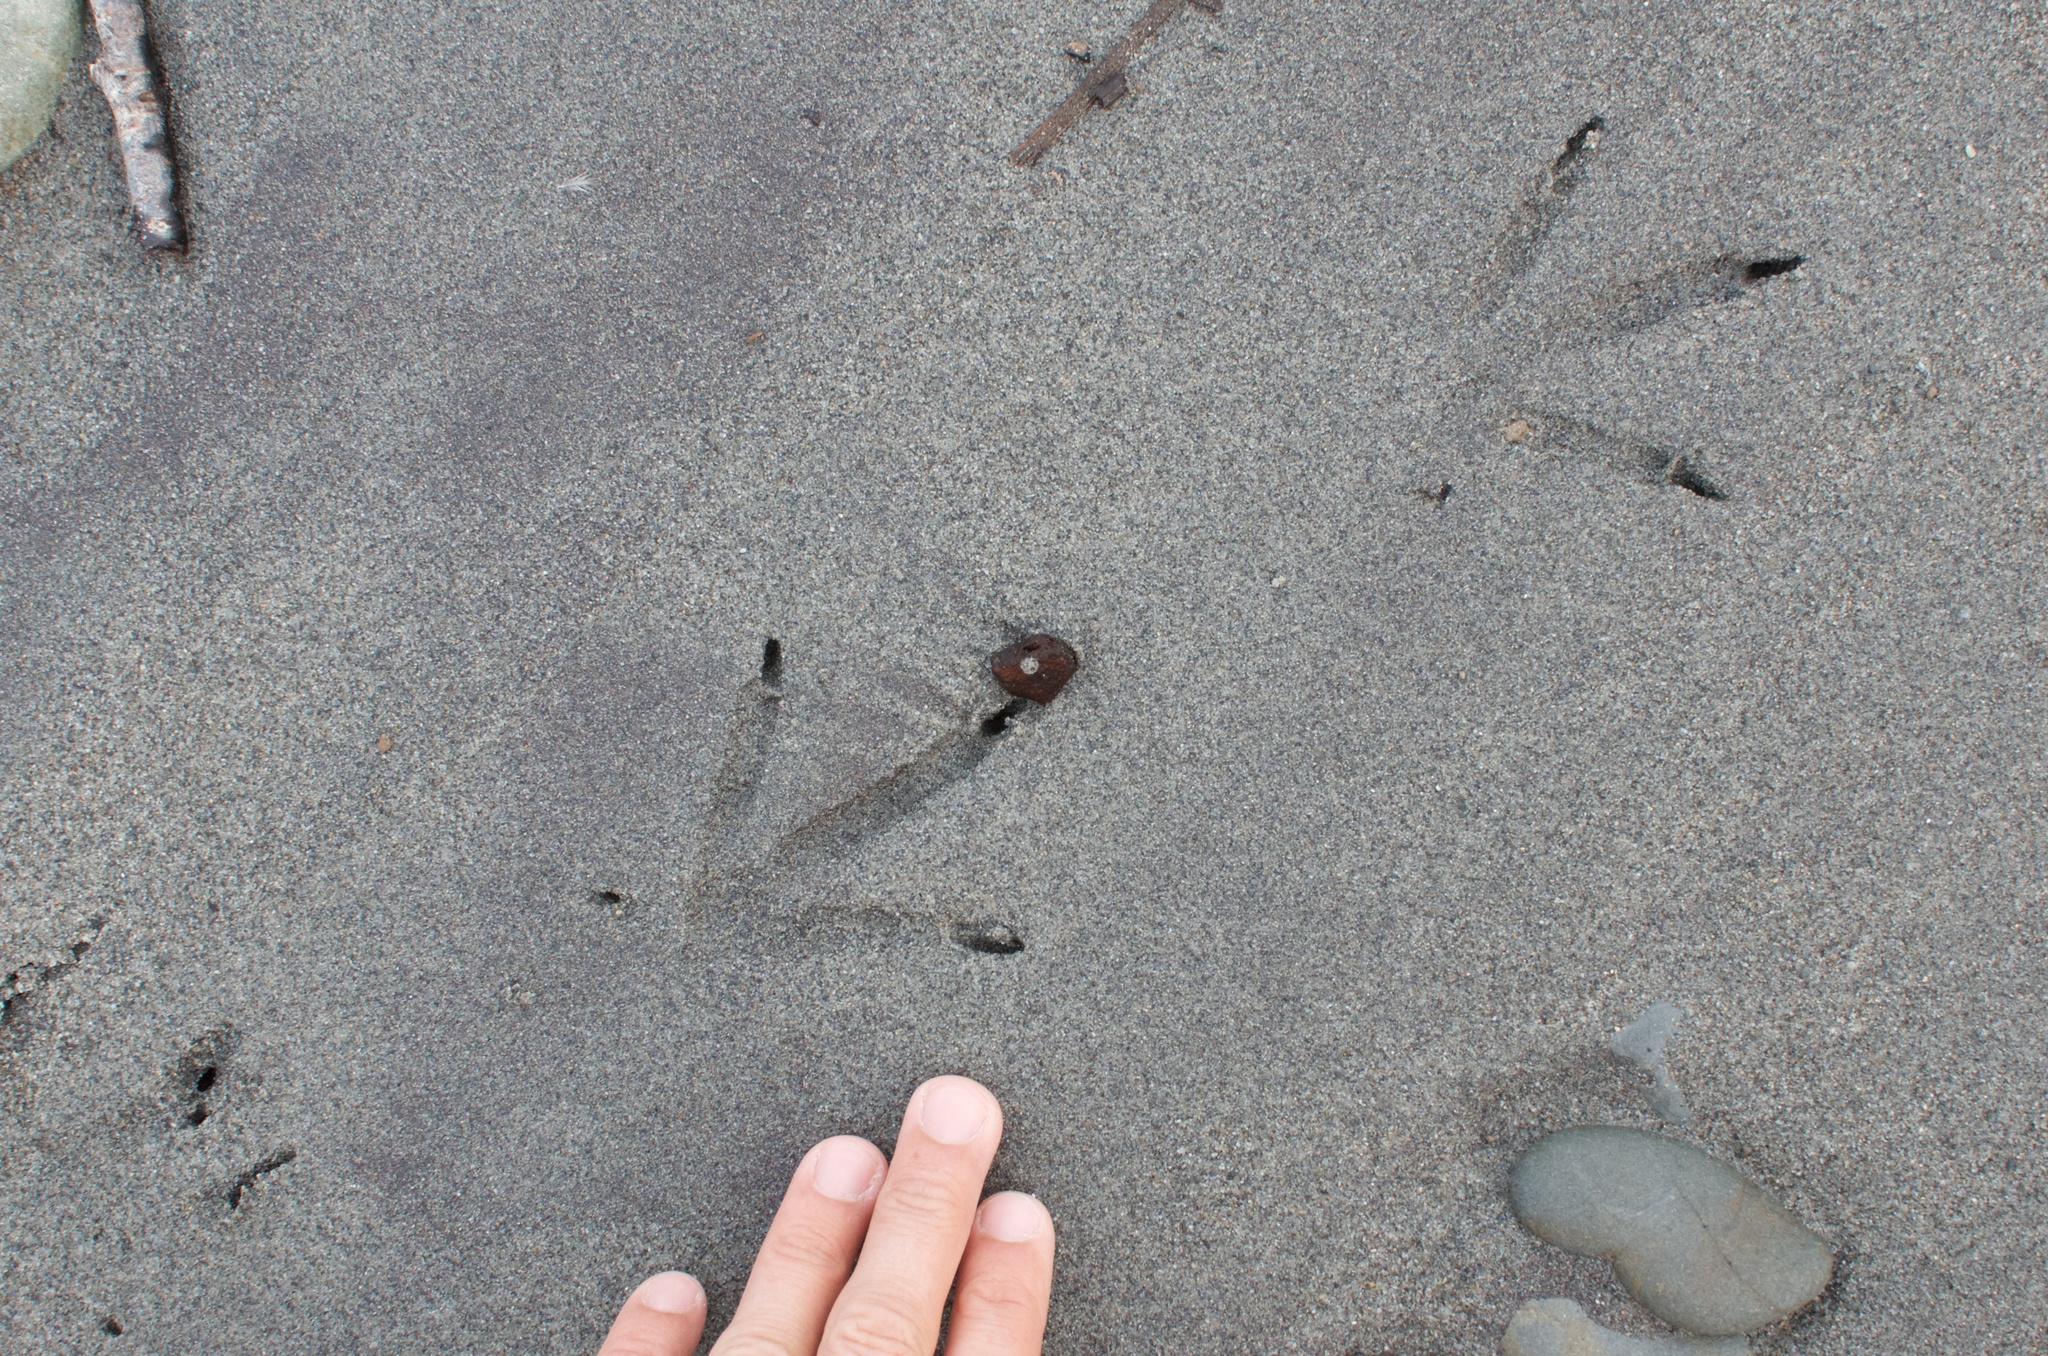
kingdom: Animalia
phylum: Chordata
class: Aves
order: Gruiformes
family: Rallidae
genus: Gallirallus
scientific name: Gallirallus australis
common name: Weka
